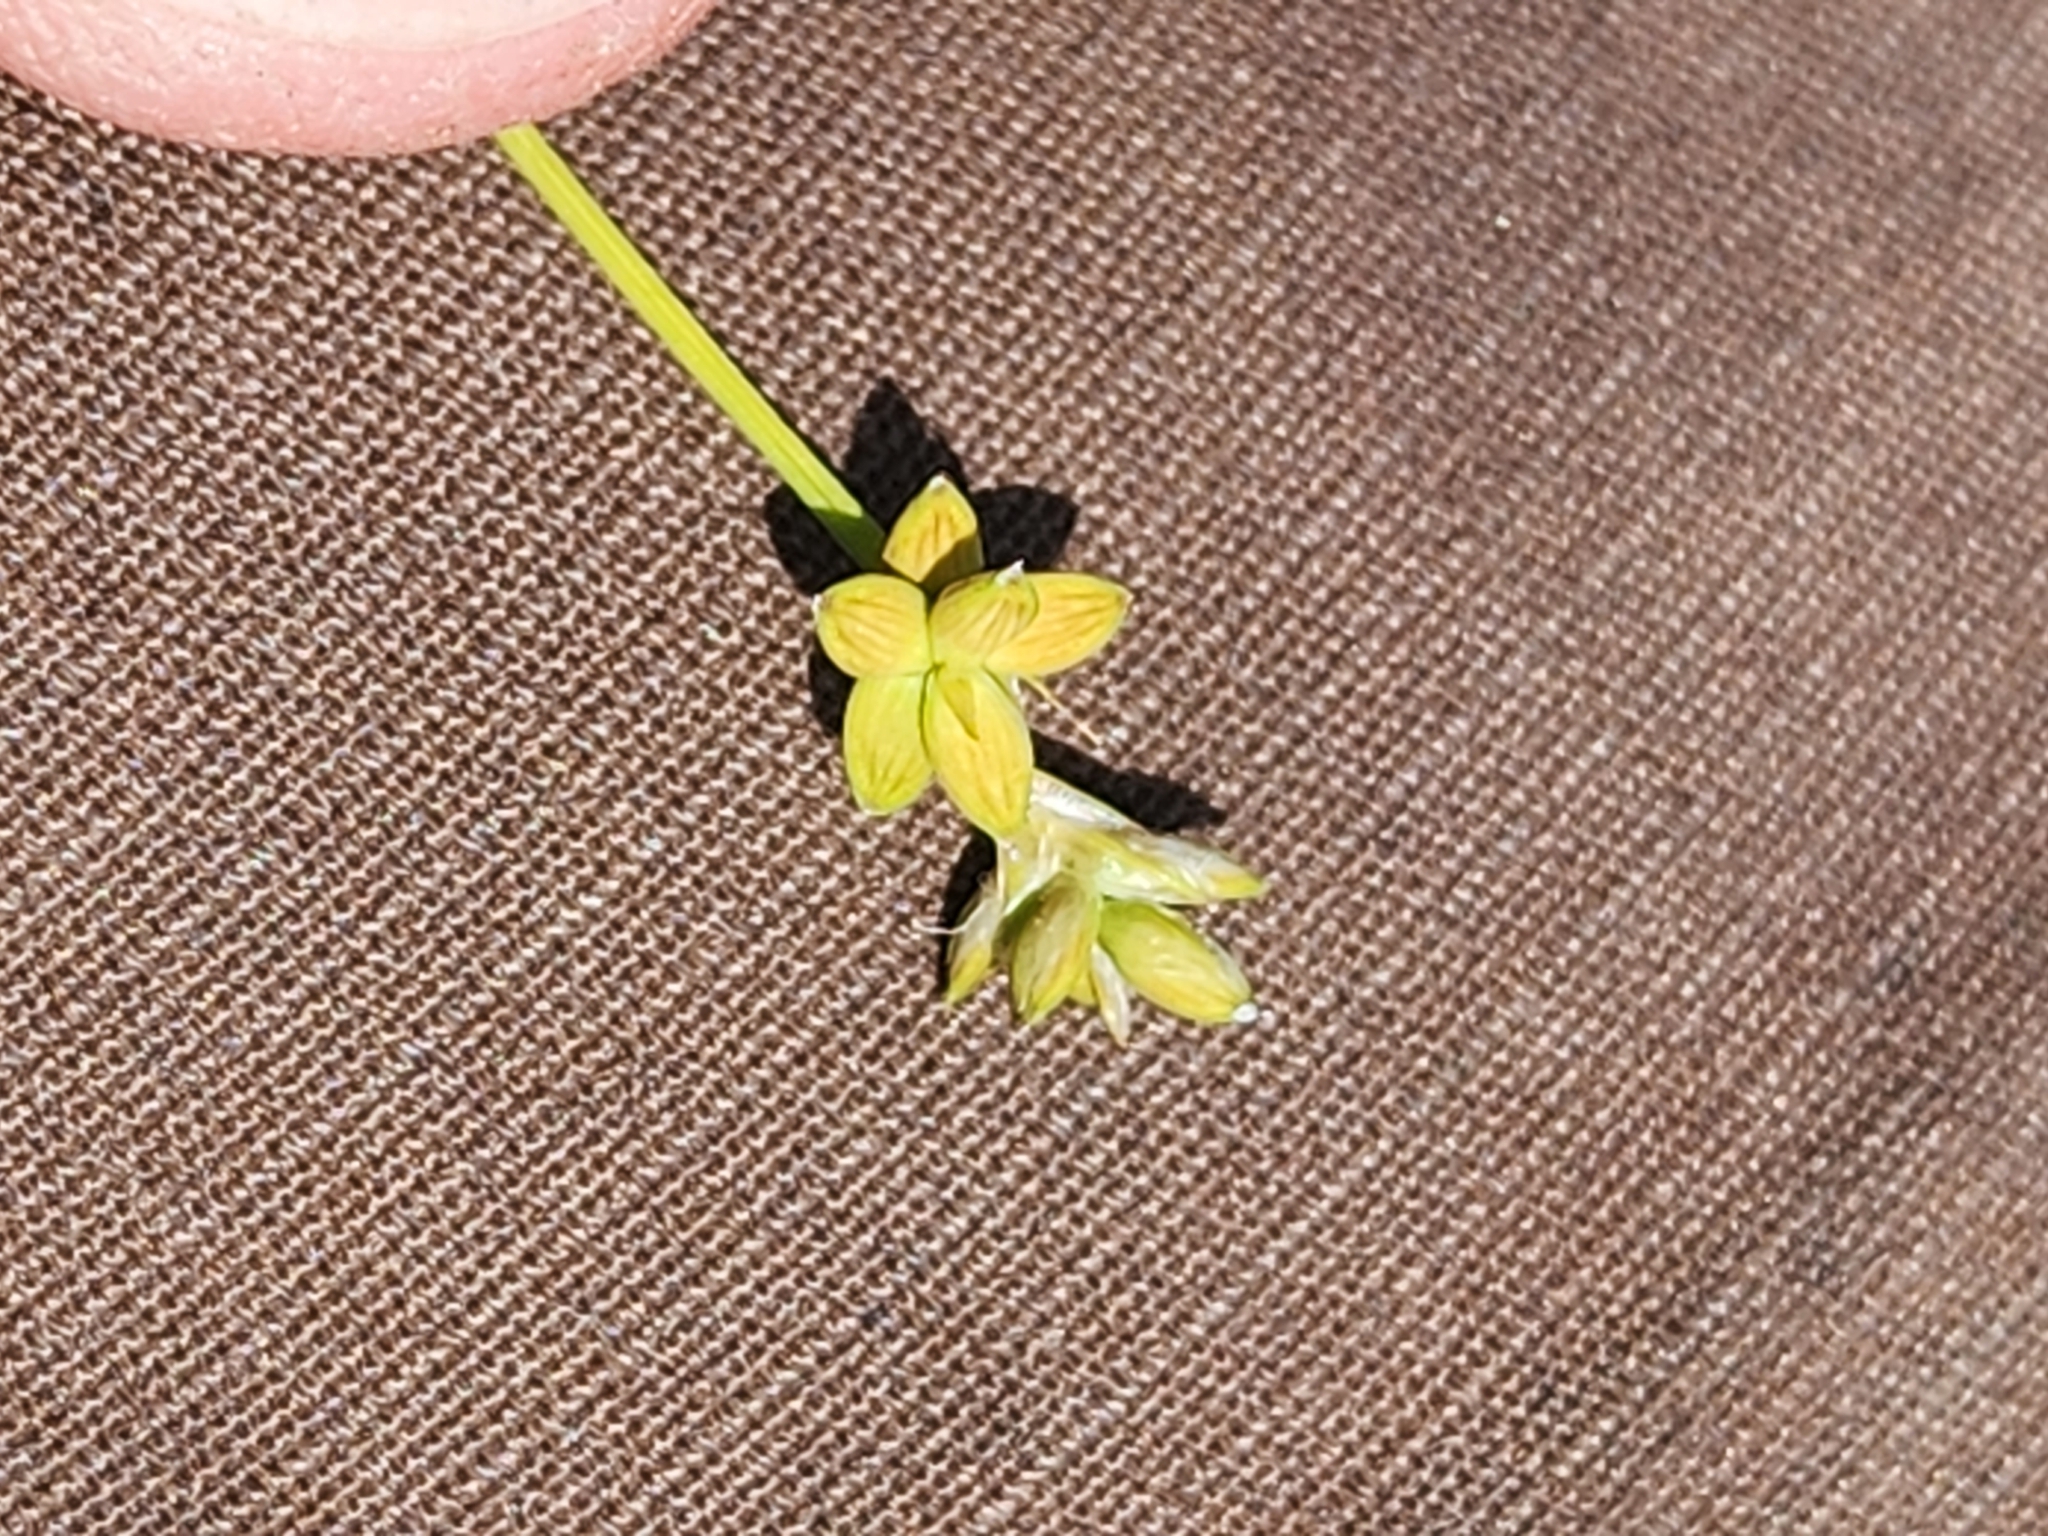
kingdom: Plantae
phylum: Tracheophyta
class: Liliopsida
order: Poales
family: Cyperaceae
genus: Carex
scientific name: Carex tenuiflora
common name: Sparse-flowered sedge
